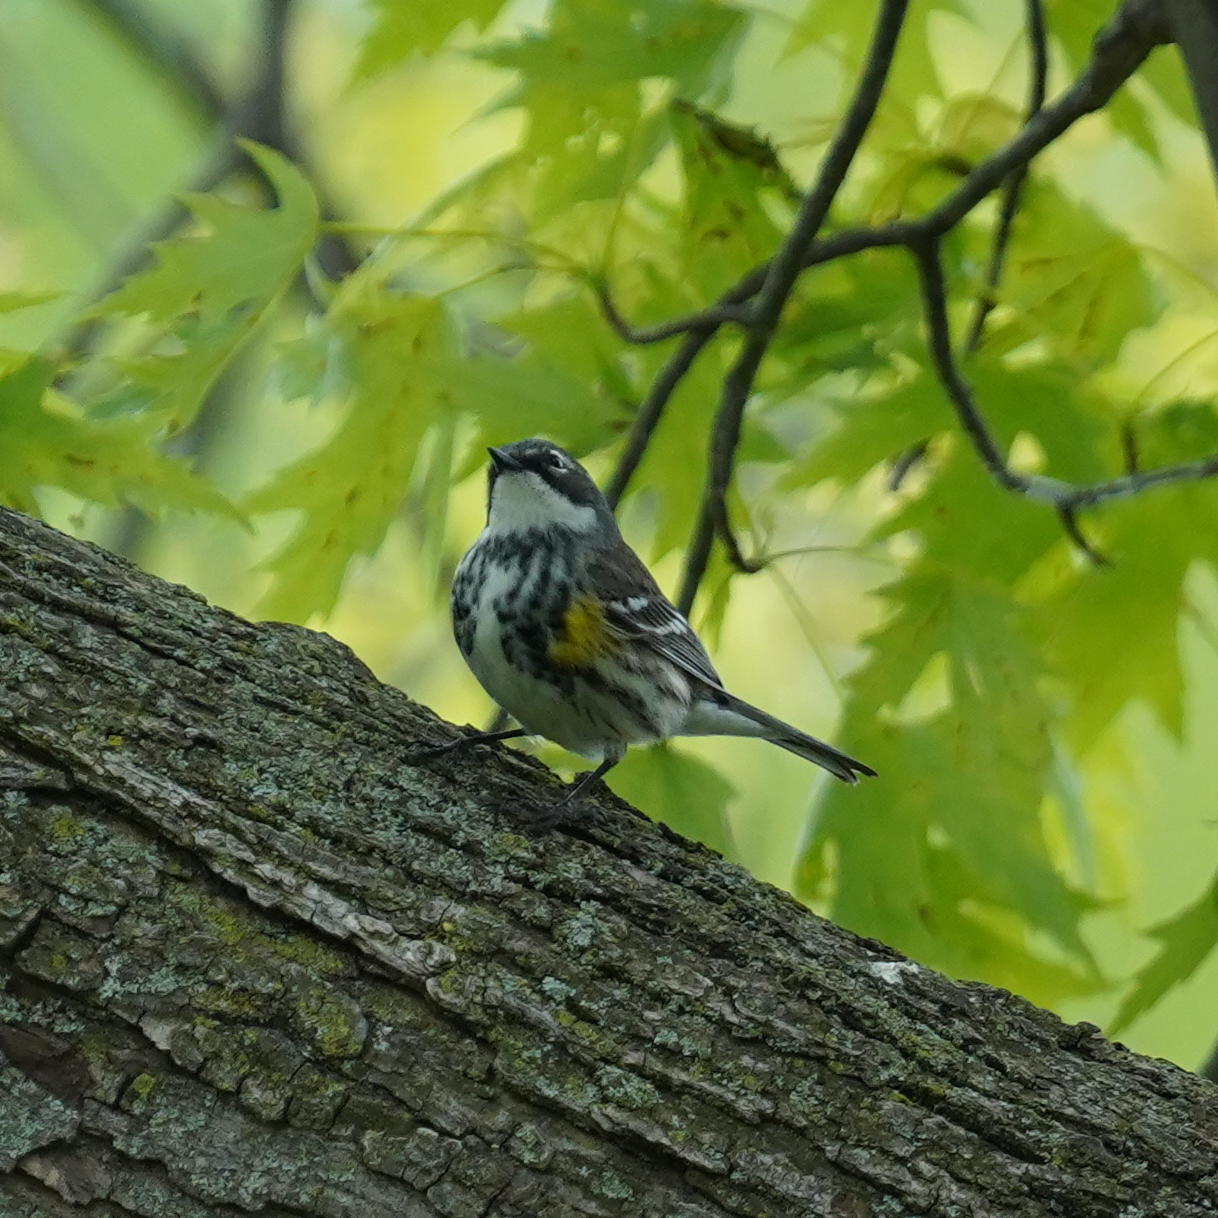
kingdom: Animalia
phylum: Chordata
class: Aves
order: Passeriformes
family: Parulidae
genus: Setophaga
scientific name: Setophaga coronata
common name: Myrtle warbler
